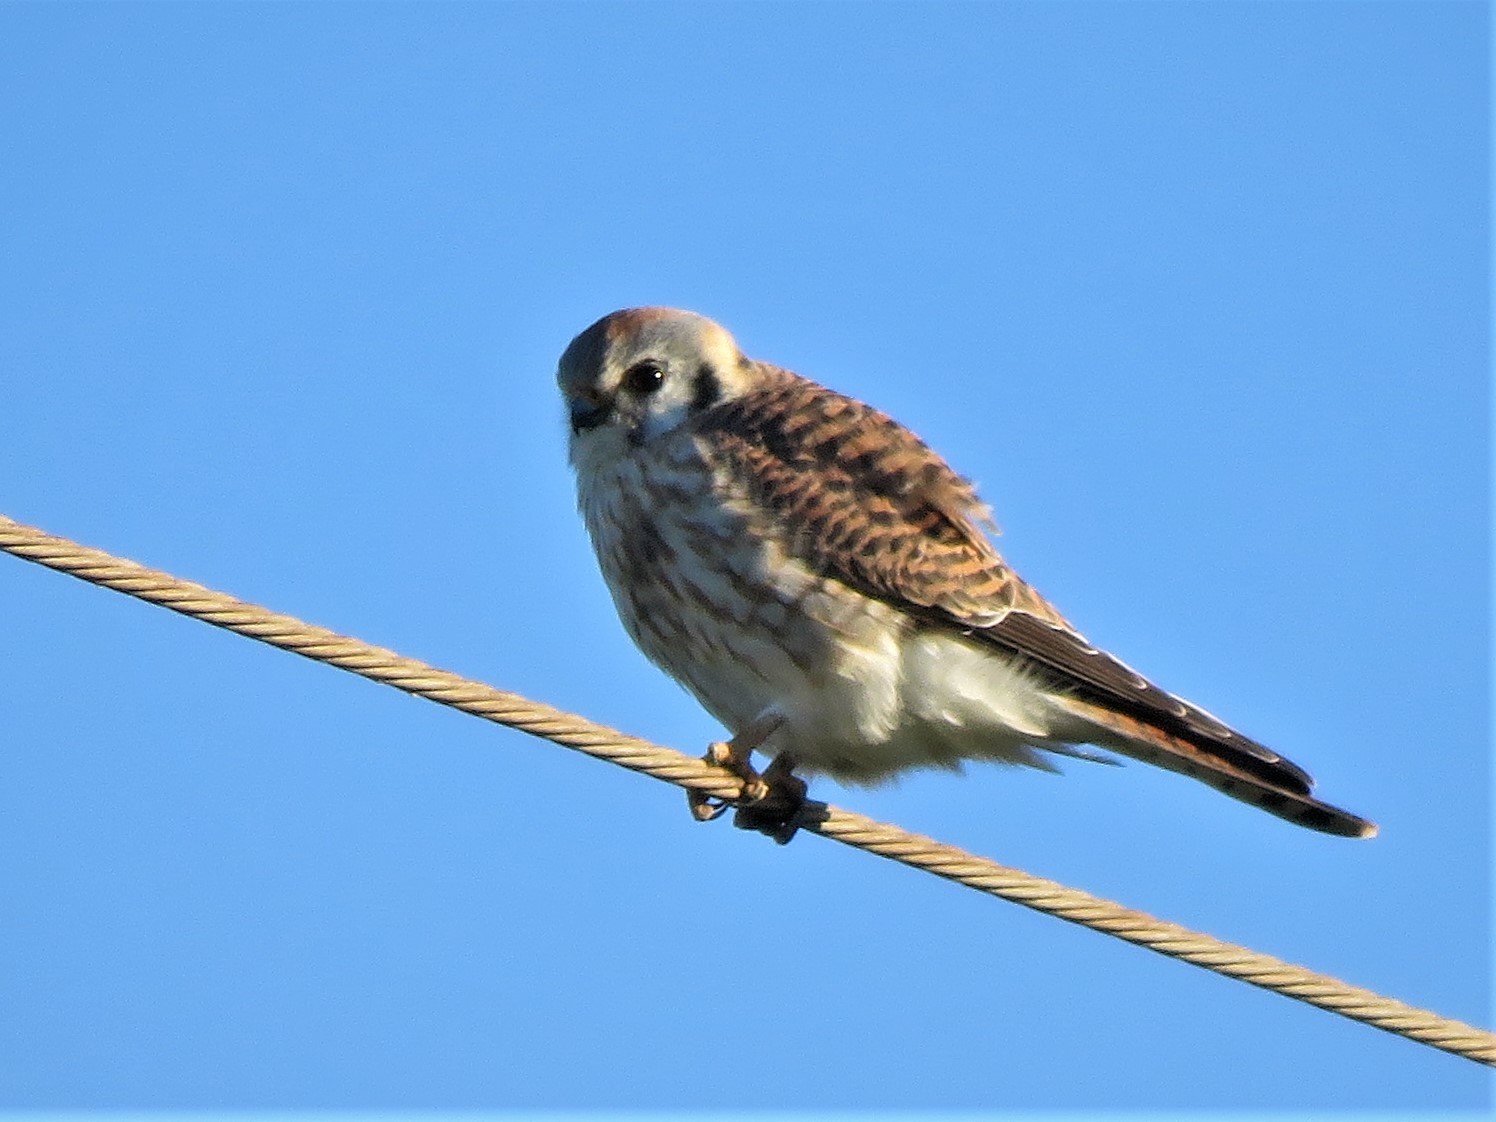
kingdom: Animalia
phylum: Chordata
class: Aves
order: Falconiformes
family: Falconidae
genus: Falco
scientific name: Falco sparverius
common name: American kestrel
